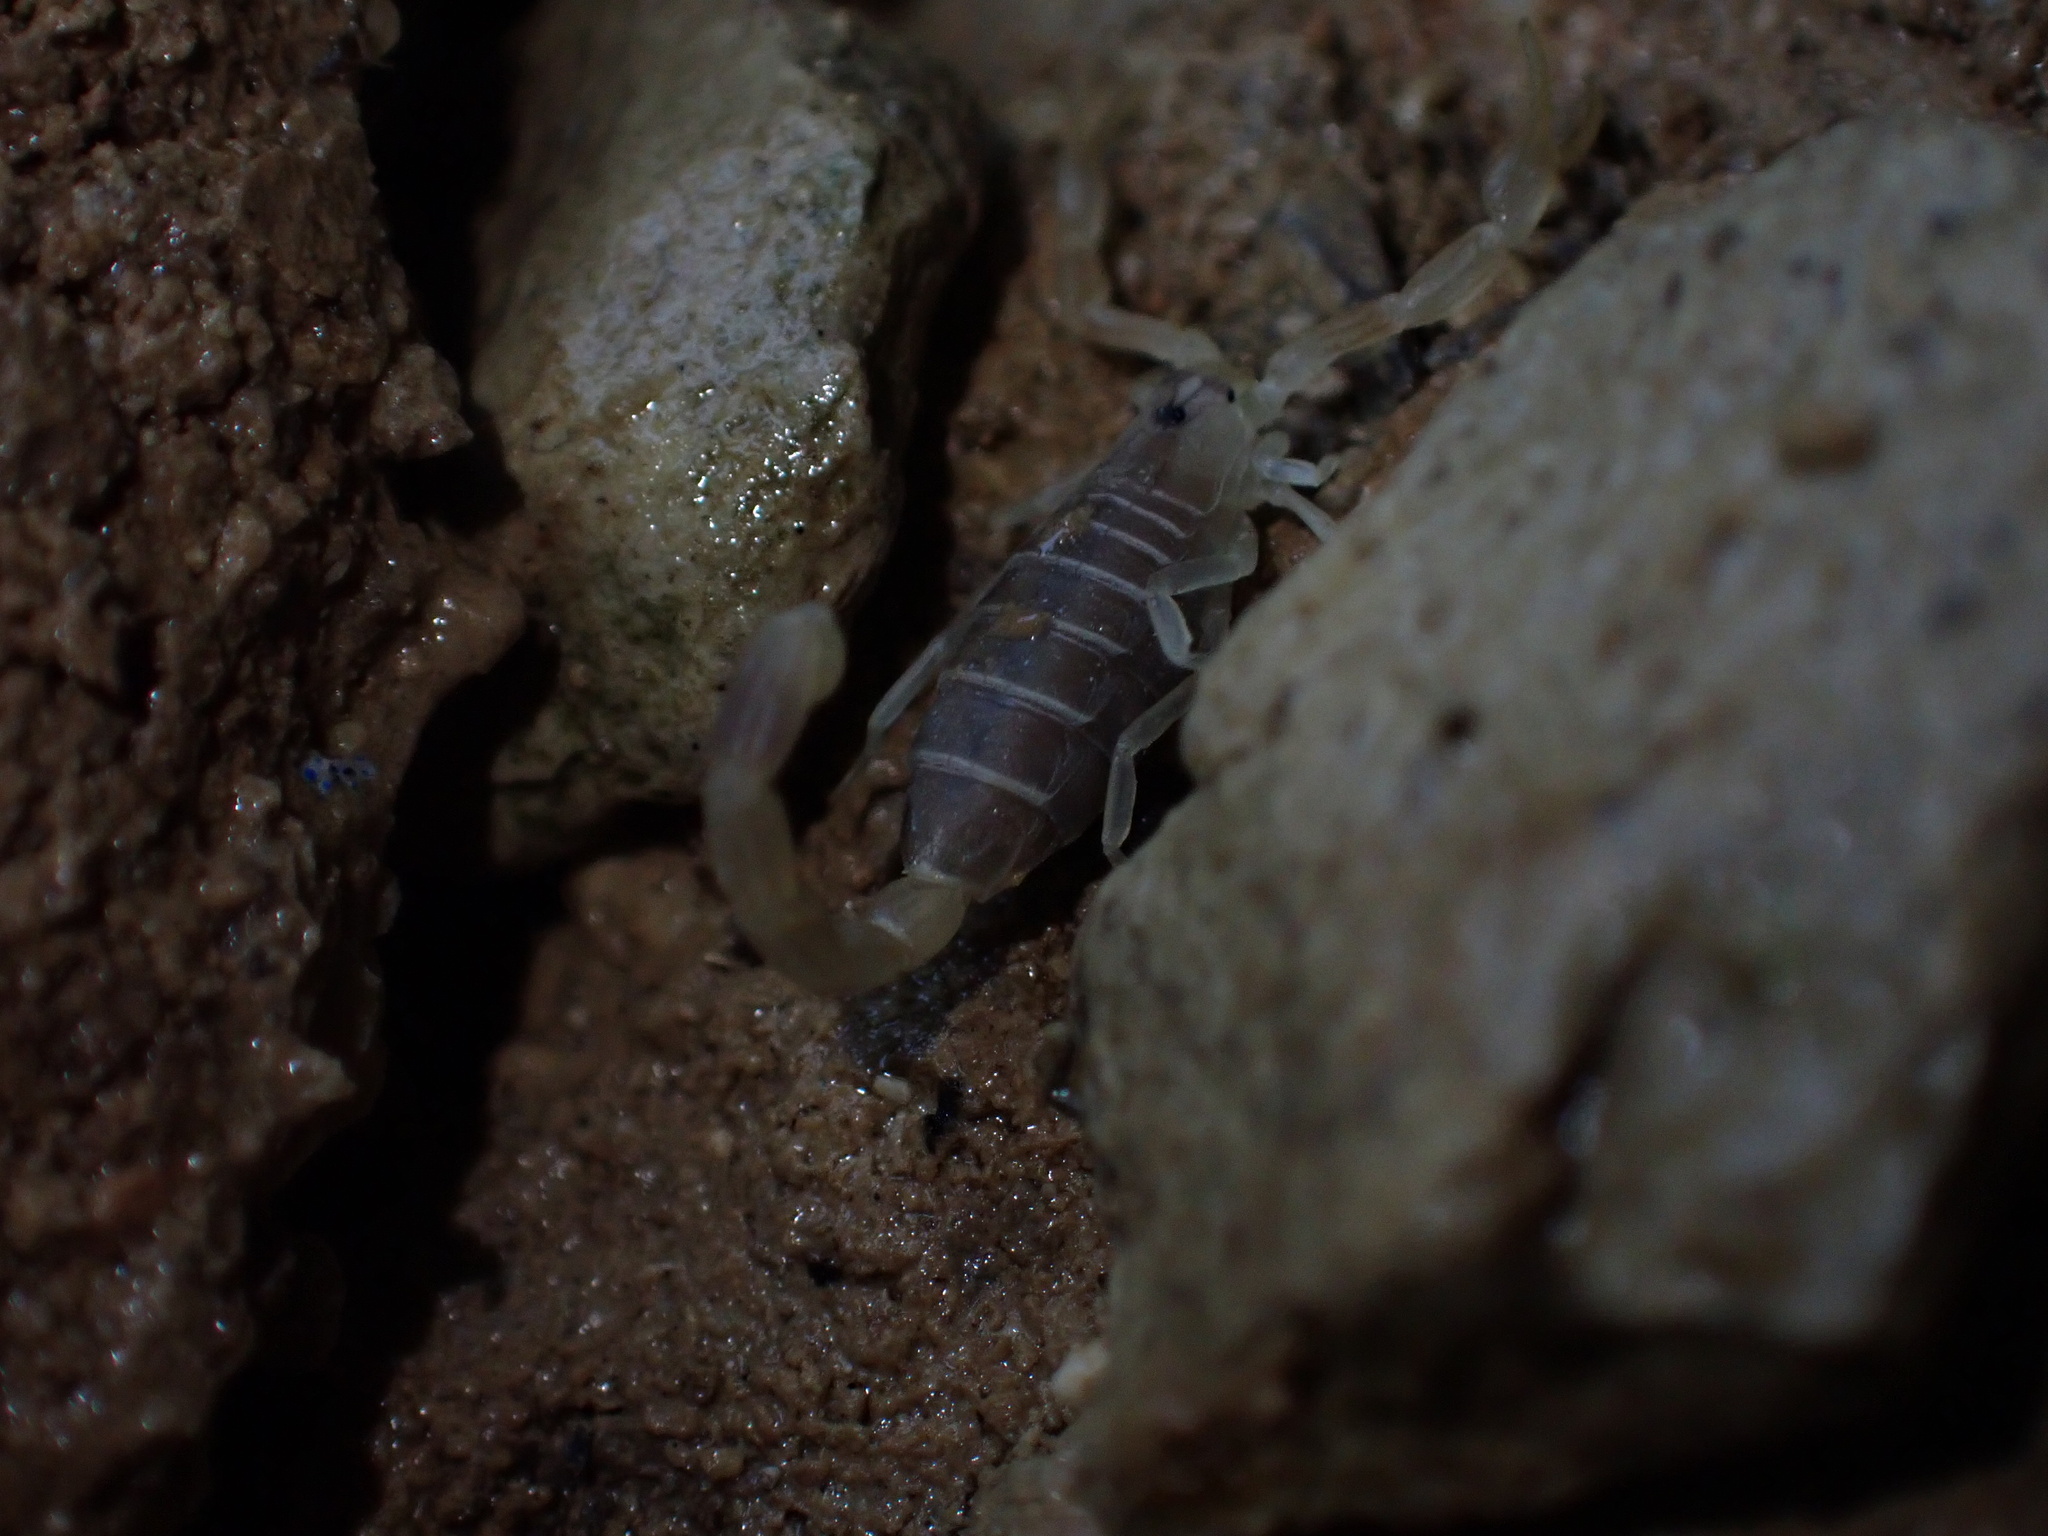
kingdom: Animalia
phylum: Arthropoda
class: Arachnida
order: Scorpiones
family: Buthidae
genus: Razianus
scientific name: Razianus zarudnyi
